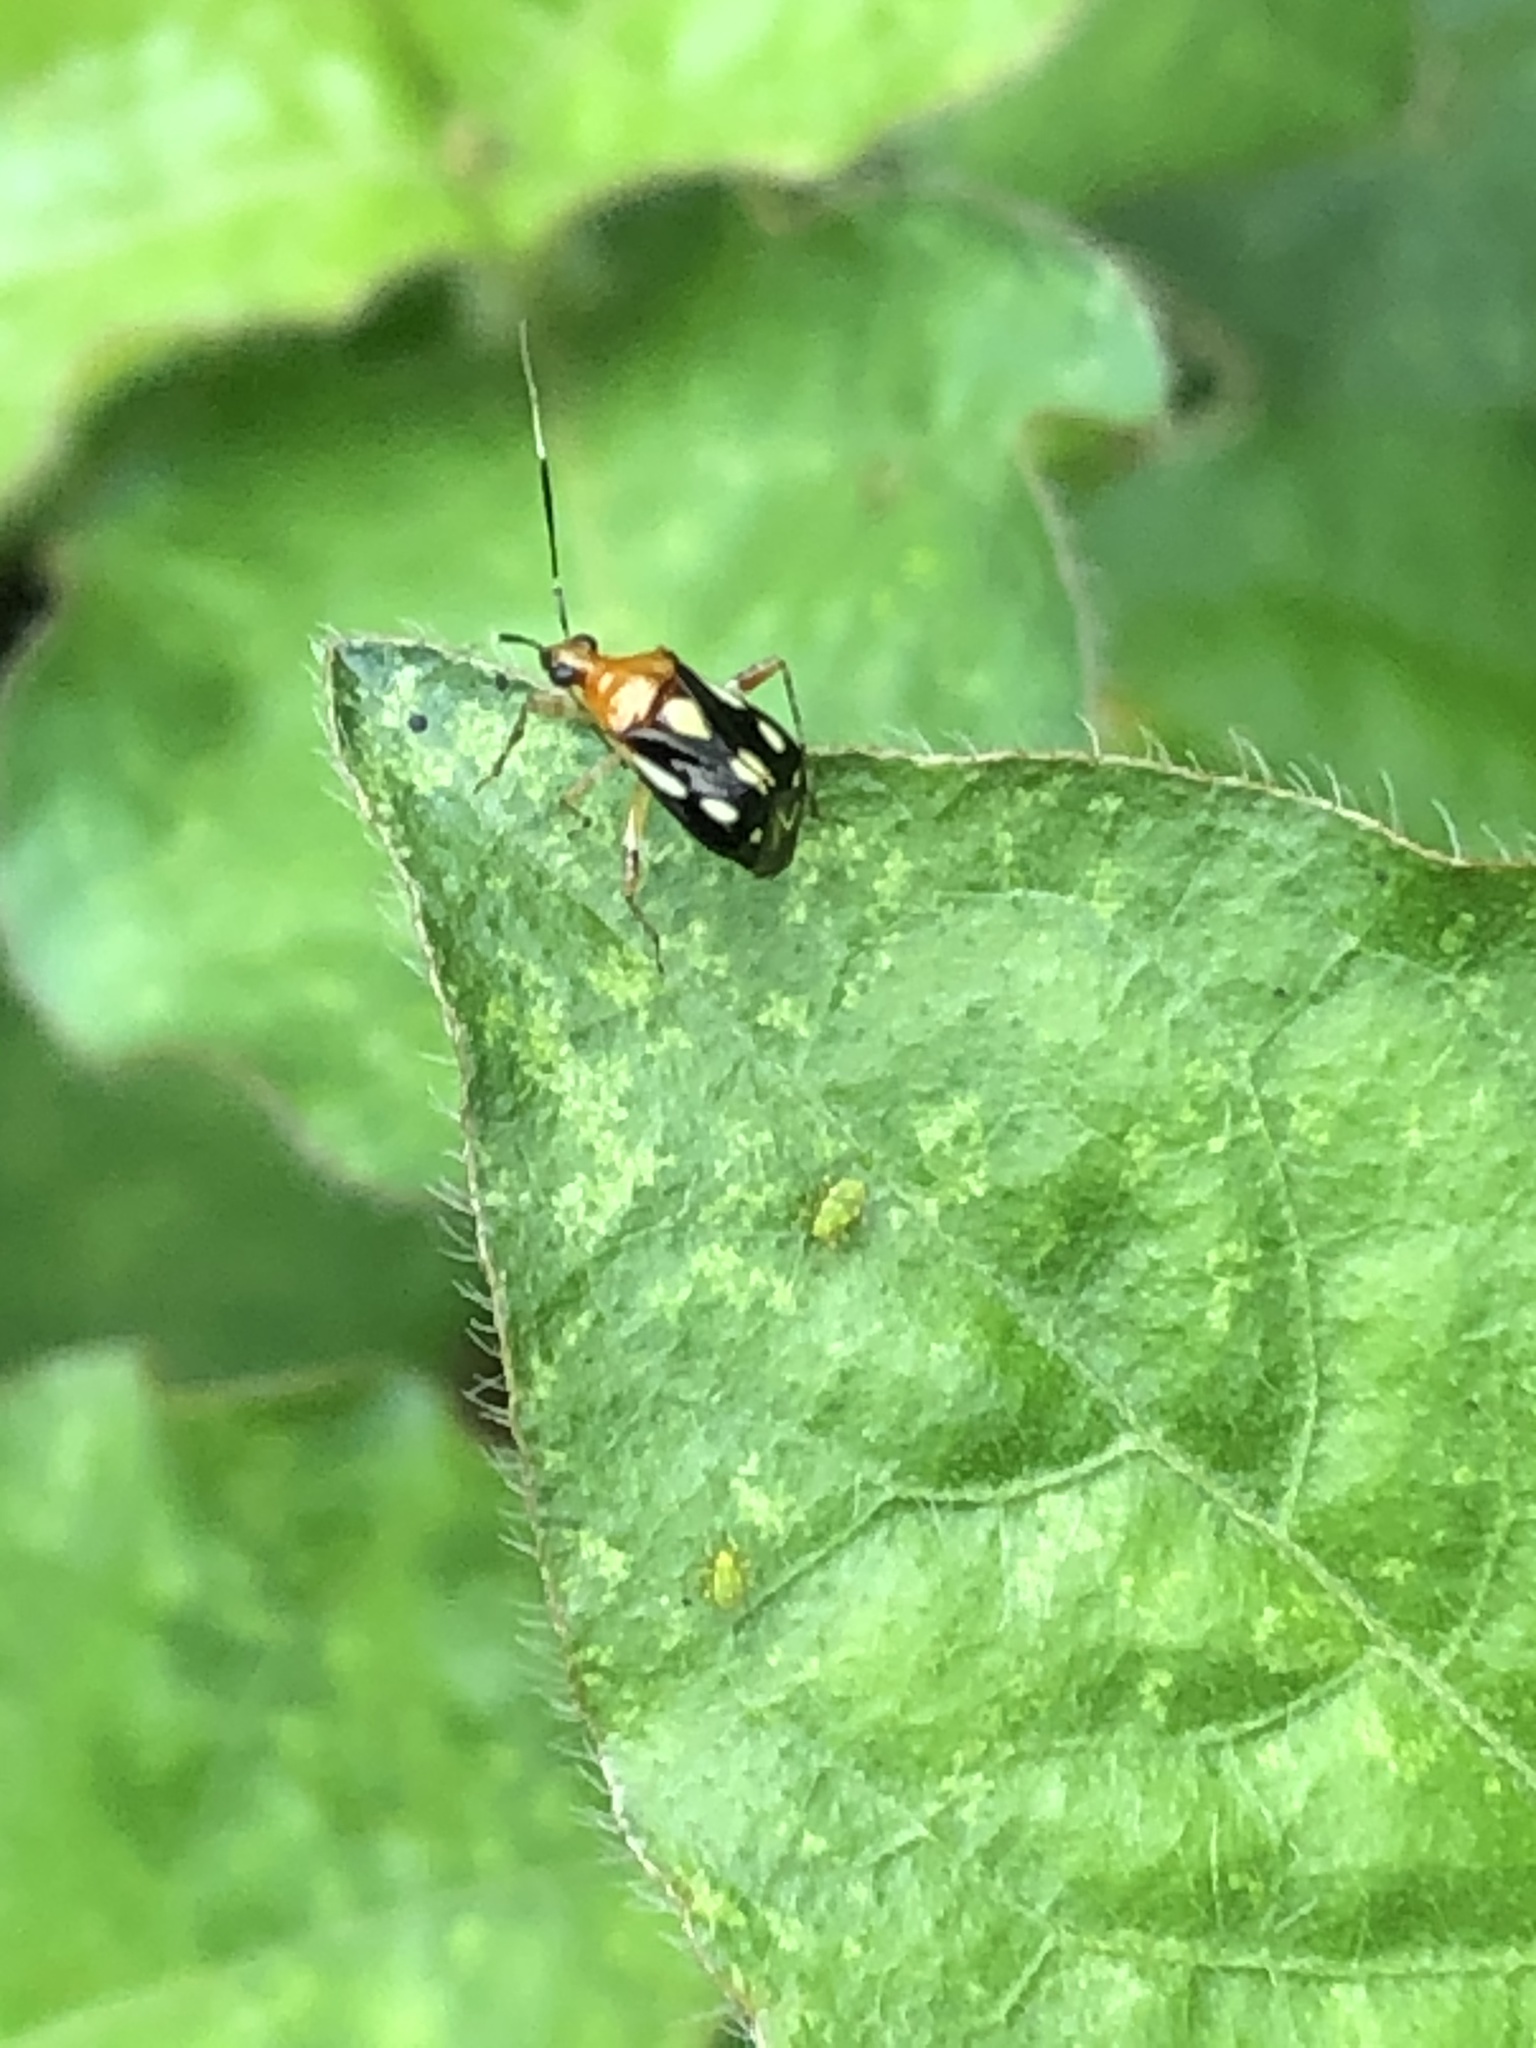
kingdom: Animalia
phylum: Arthropoda
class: Insecta
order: Hemiptera
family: Miridae
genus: Horciasinus
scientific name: Horciasinus amazonicus
